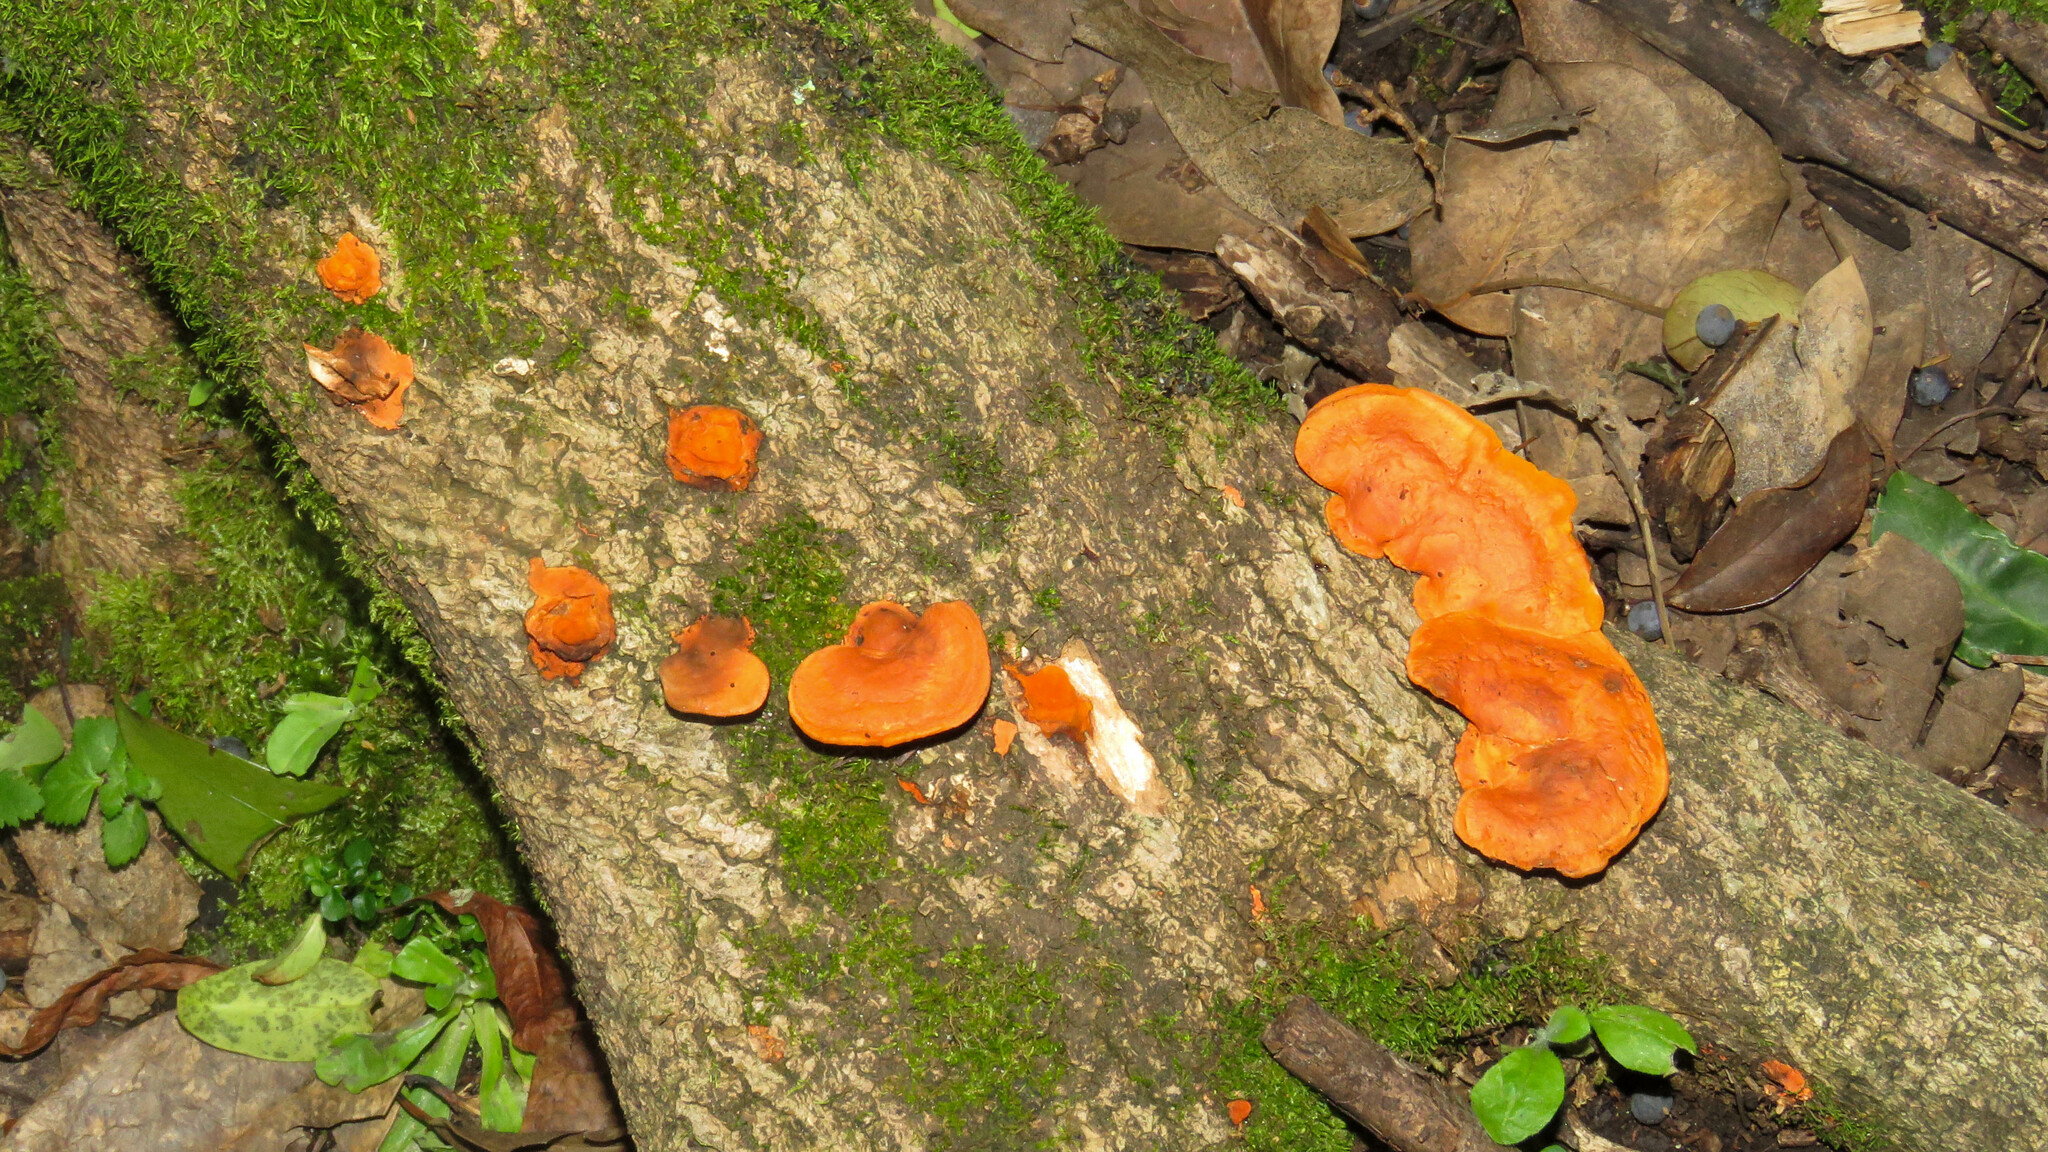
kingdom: Fungi
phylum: Basidiomycota
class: Agaricomycetes
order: Polyporales
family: Polyporaceae
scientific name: Polyporaceae
